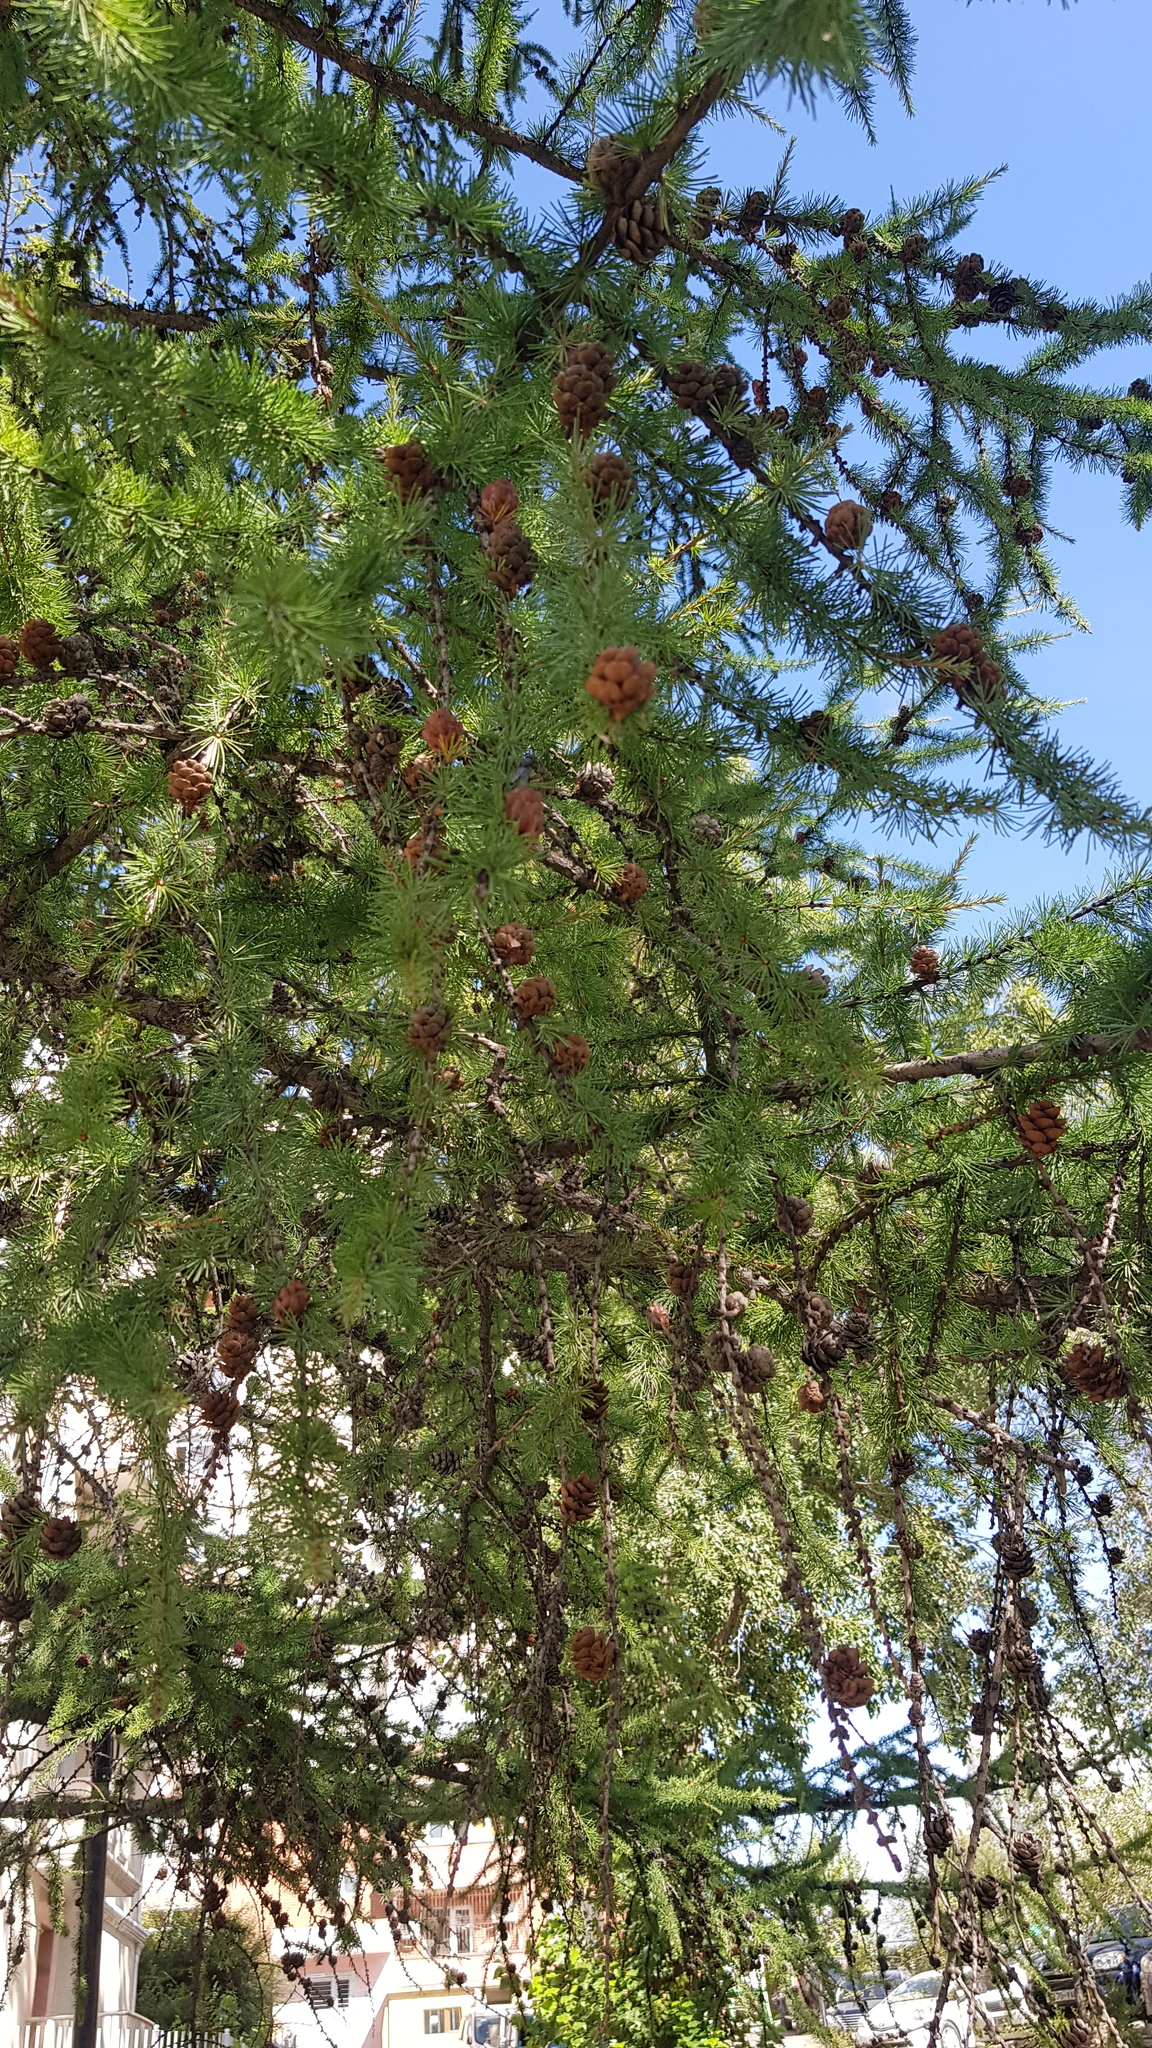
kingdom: Plantae
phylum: Tracheophyta
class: Pinopsida
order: Pinales
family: Pinaceae
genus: Larix
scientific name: Larix sibirica
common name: Siberian larch
